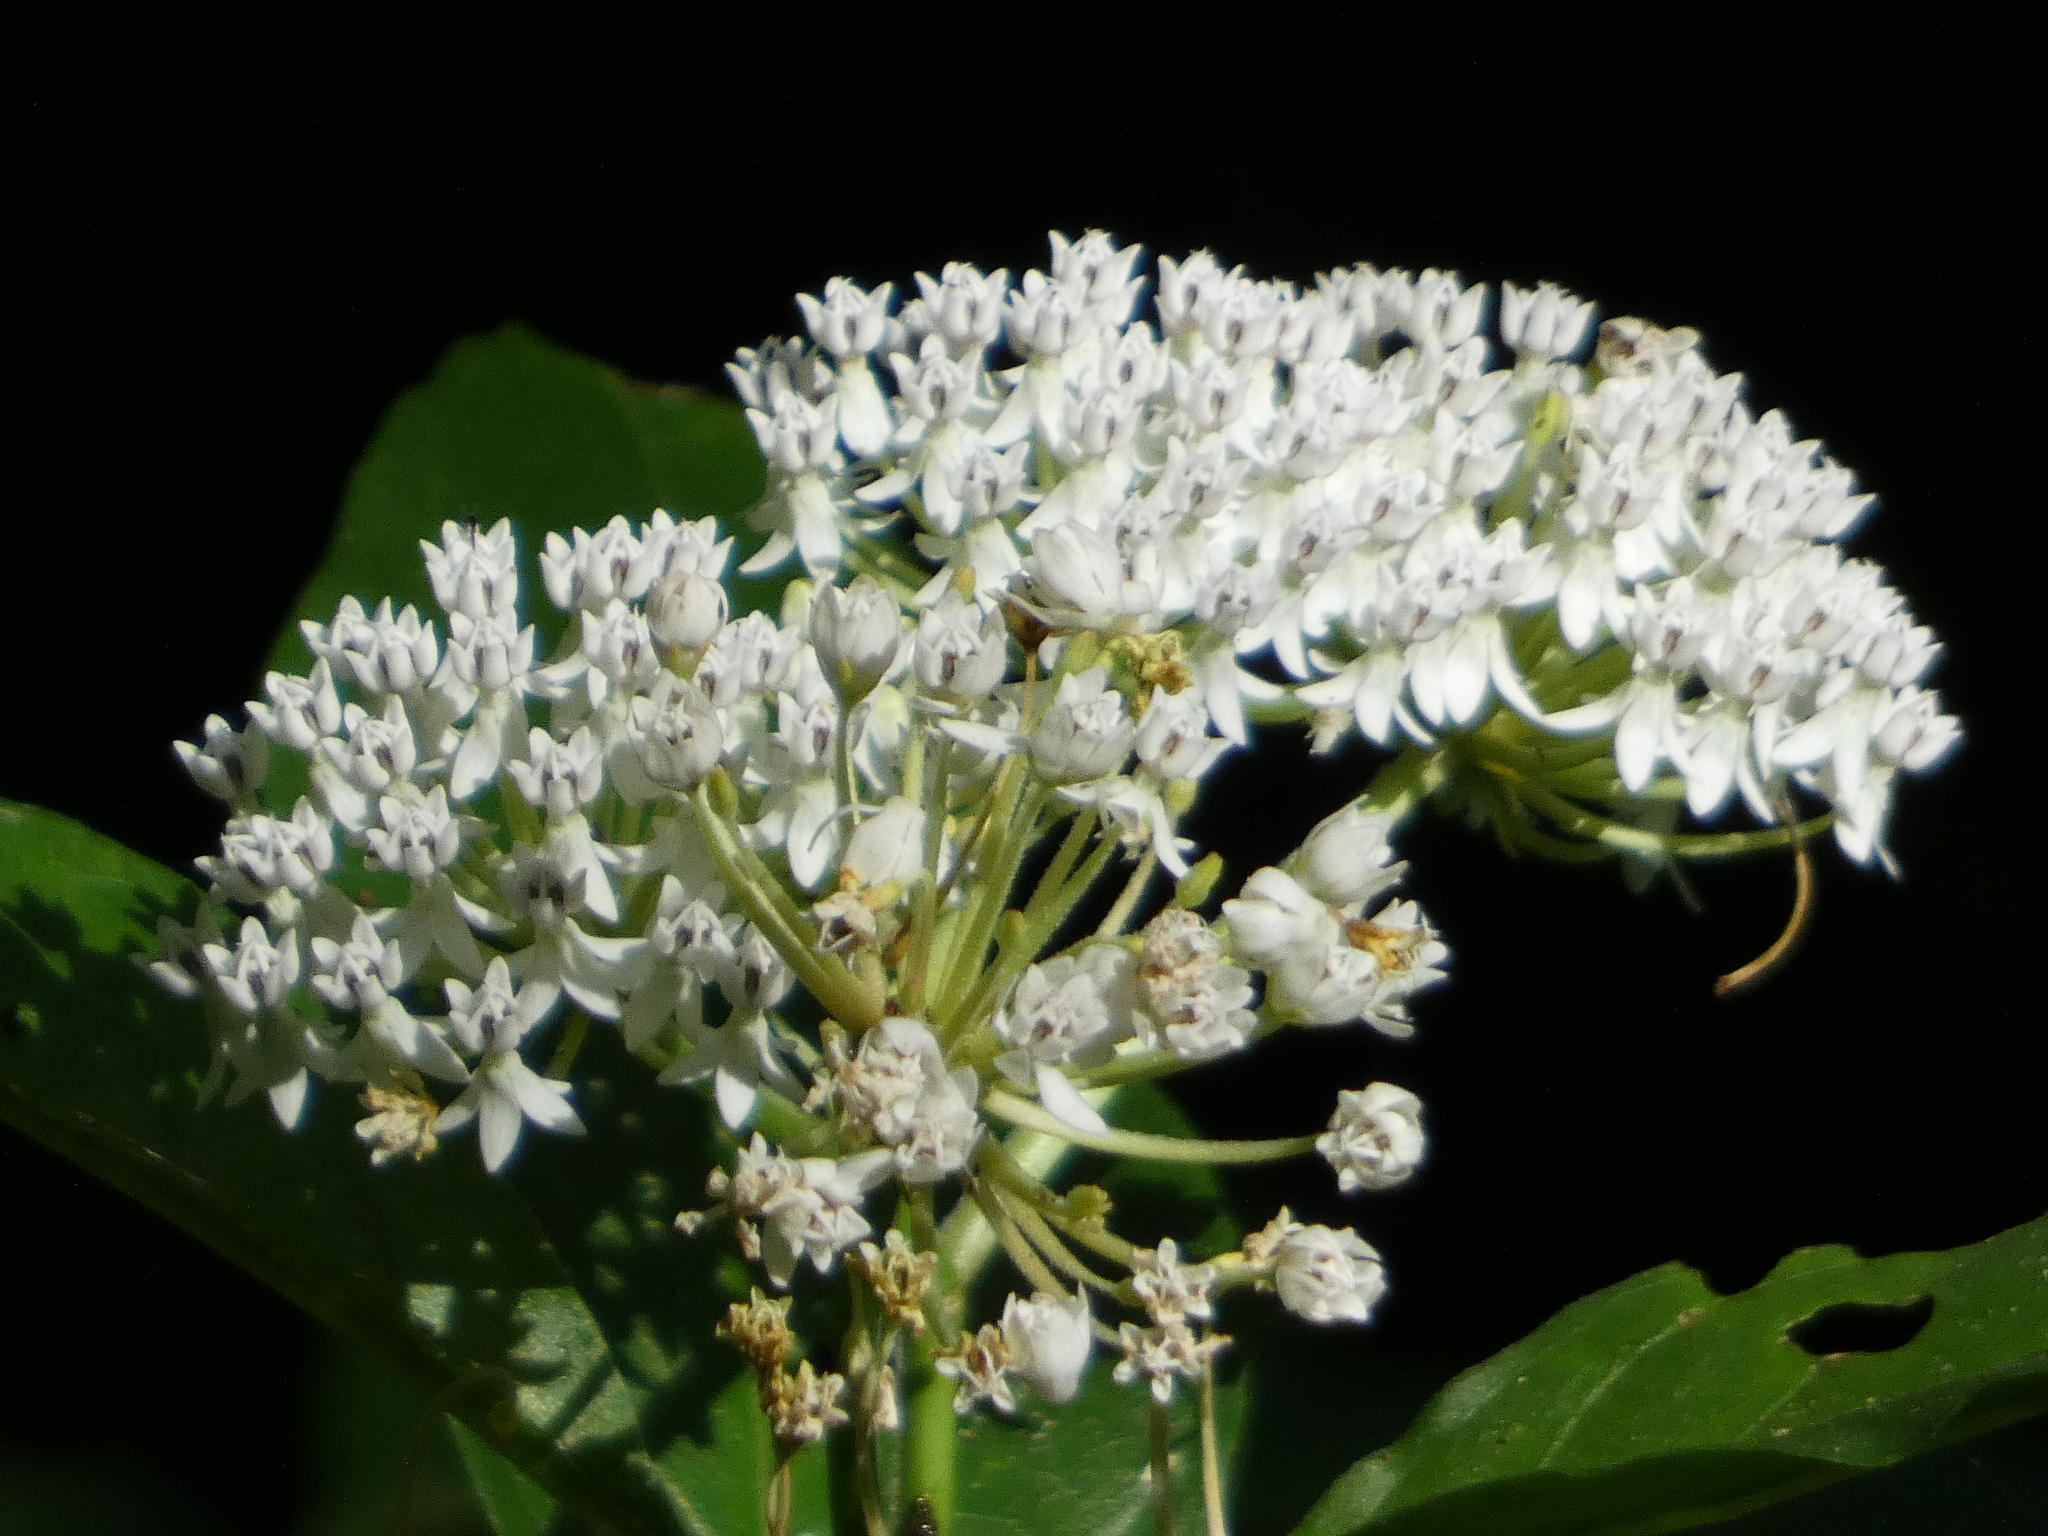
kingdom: Plantae
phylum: Tracheophyta
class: Magnoliopsida
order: Gentianales
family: Apocynaceae
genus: Asclepias
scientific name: Asclepias perennis
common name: Smooth-seed milkweed
